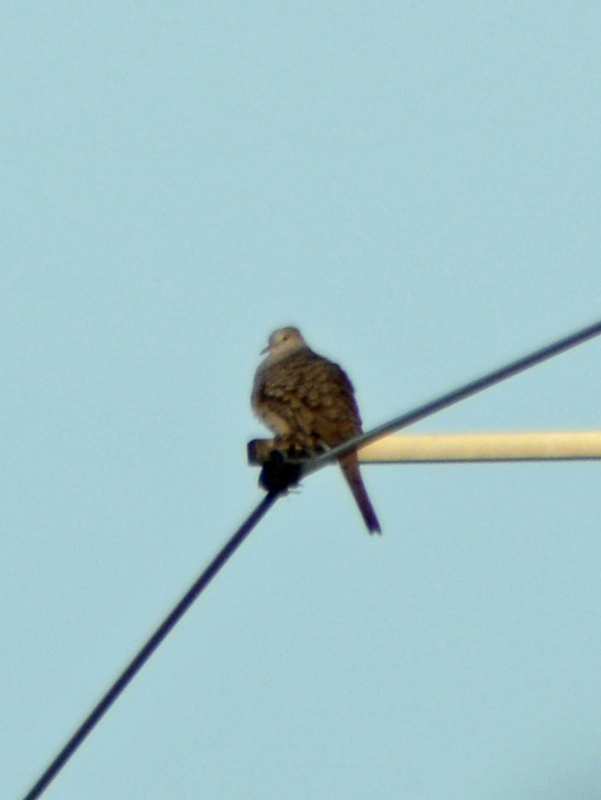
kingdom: Animalia
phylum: Chordata
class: Aves
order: Columbiformes
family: Columbidae
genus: Columbina
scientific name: Columbina inca
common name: Inca dove
